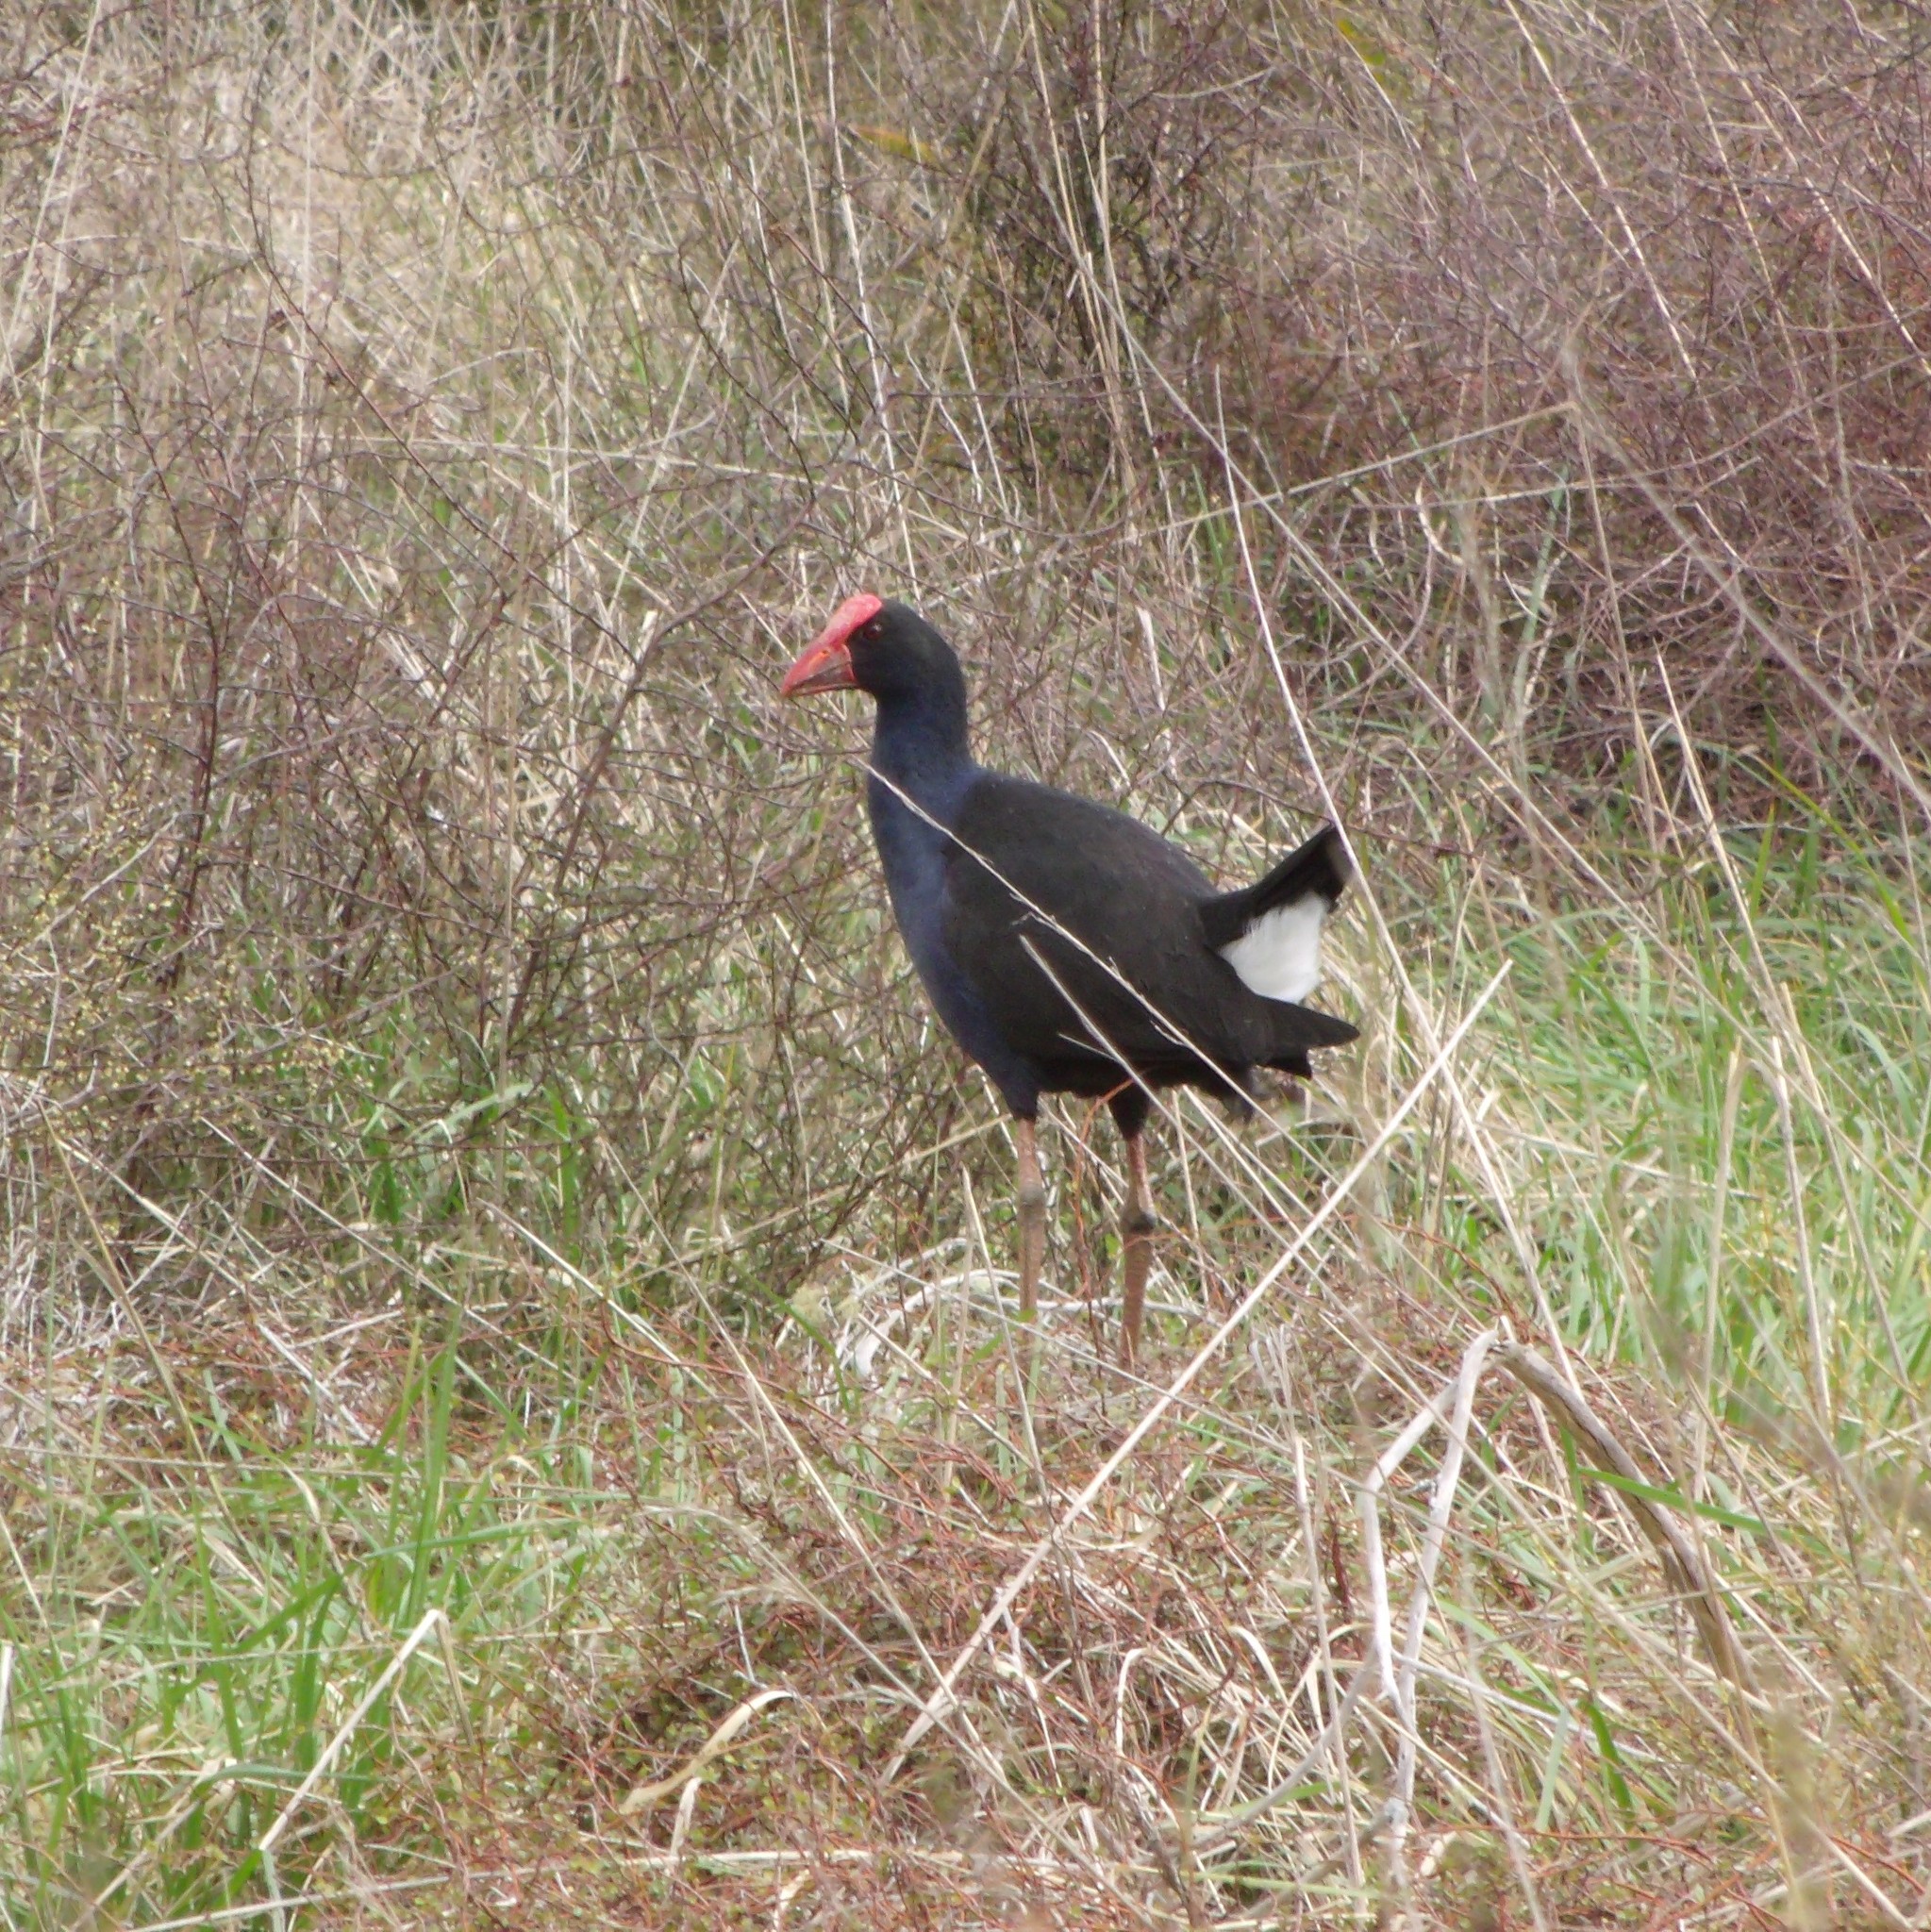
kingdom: Animalia
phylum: Chordata
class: Aves
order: Gruiformes
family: Rallidae
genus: Porphyrio
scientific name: Porphyrio melanotus
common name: Australasian swamphen
